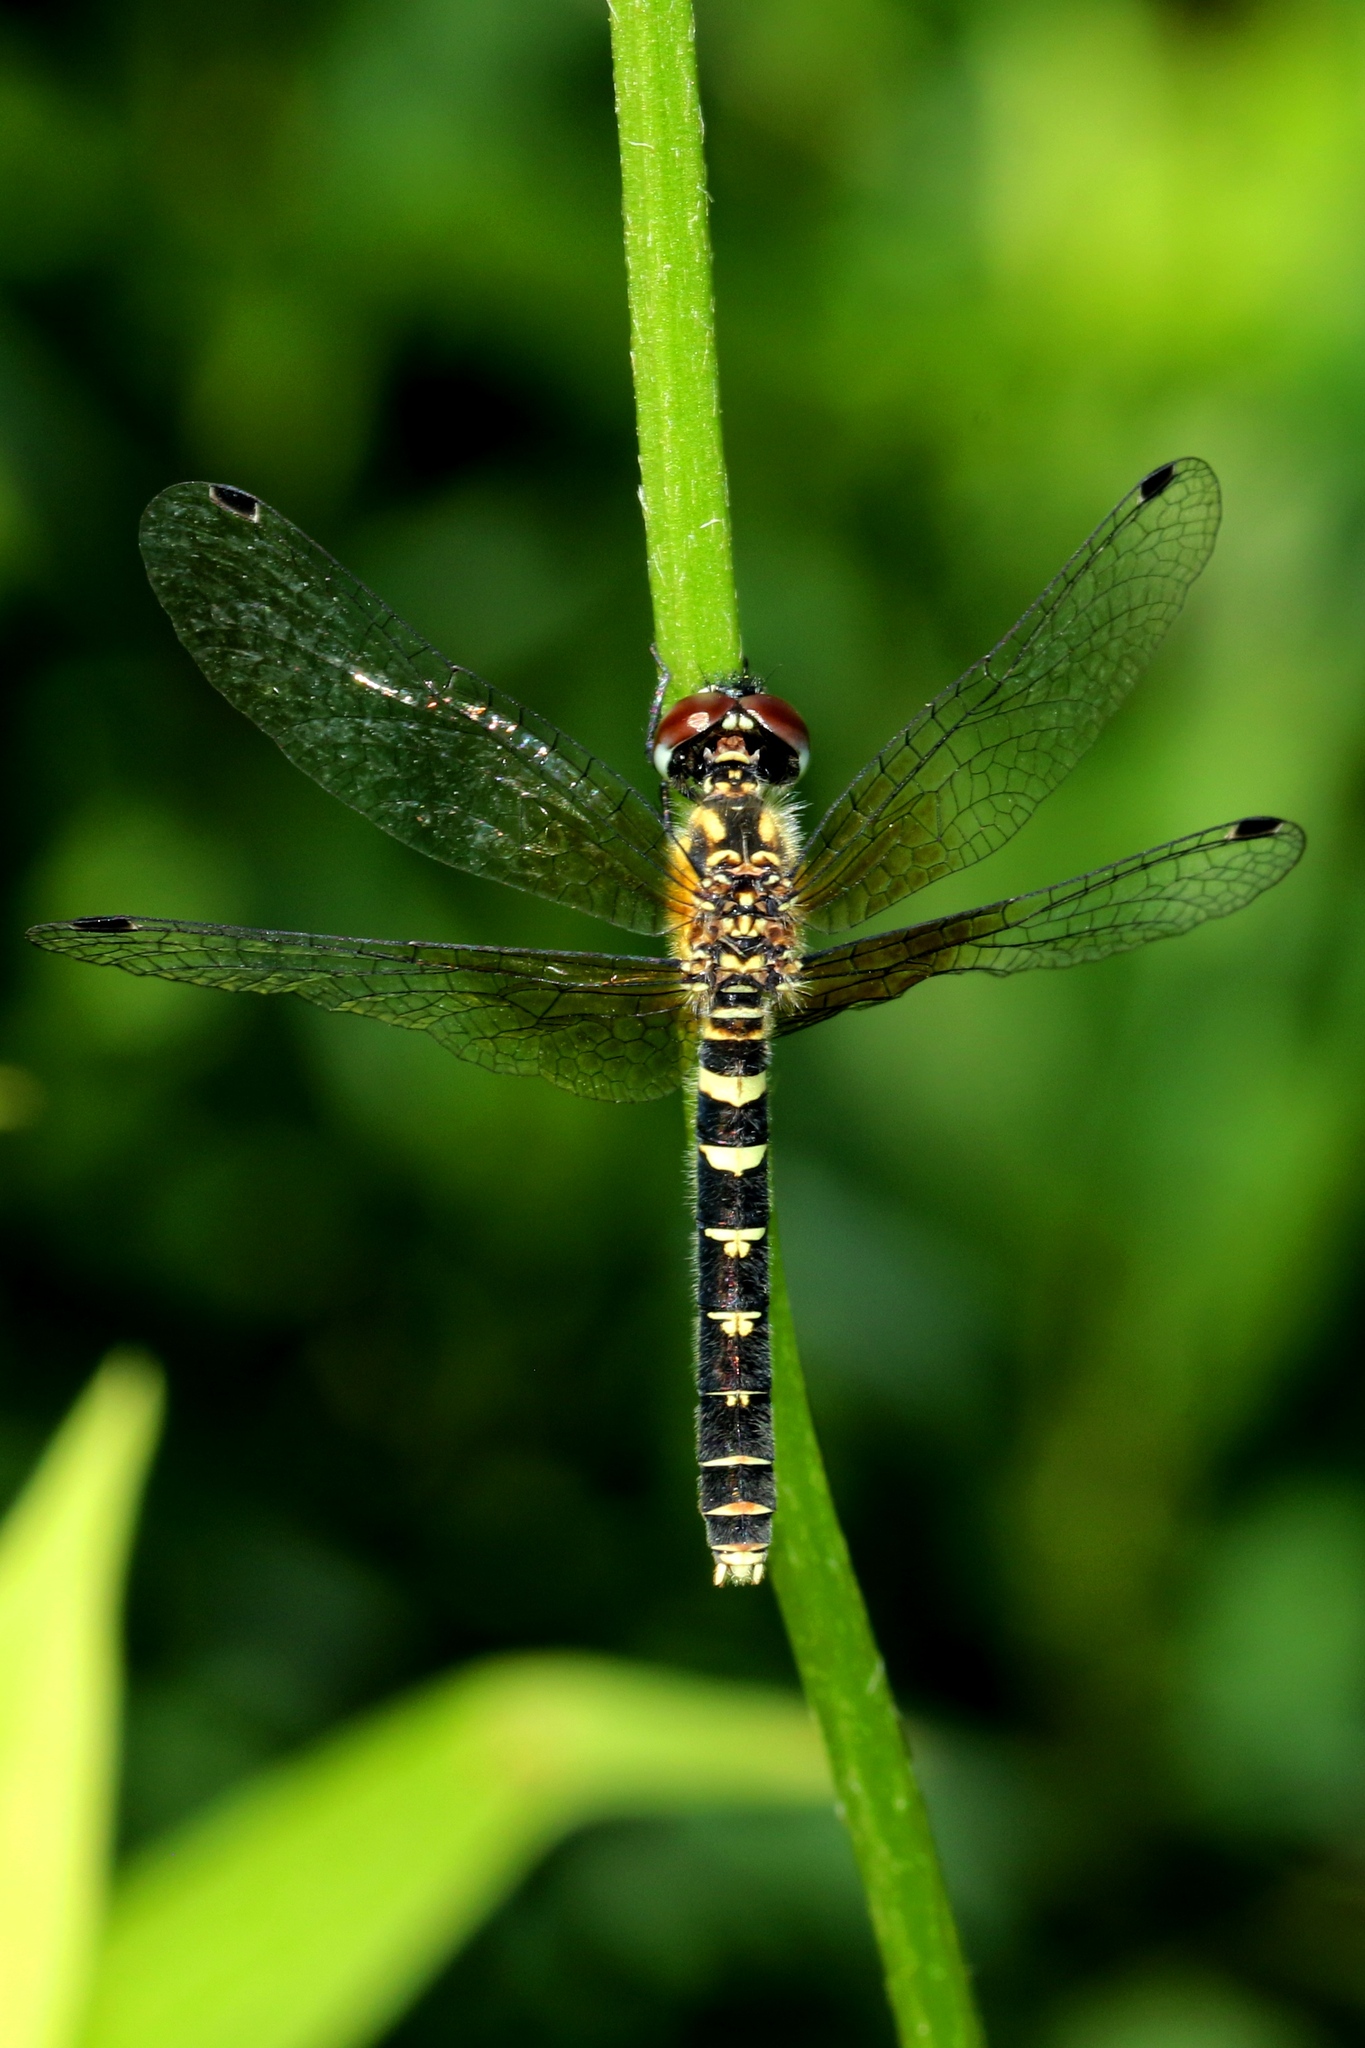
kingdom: Animalia
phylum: Arthropoda
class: Insecta
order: Odonata
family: Libellulidae
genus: Nannothemis
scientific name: Nannothemis bella
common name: Elfin skimmer
